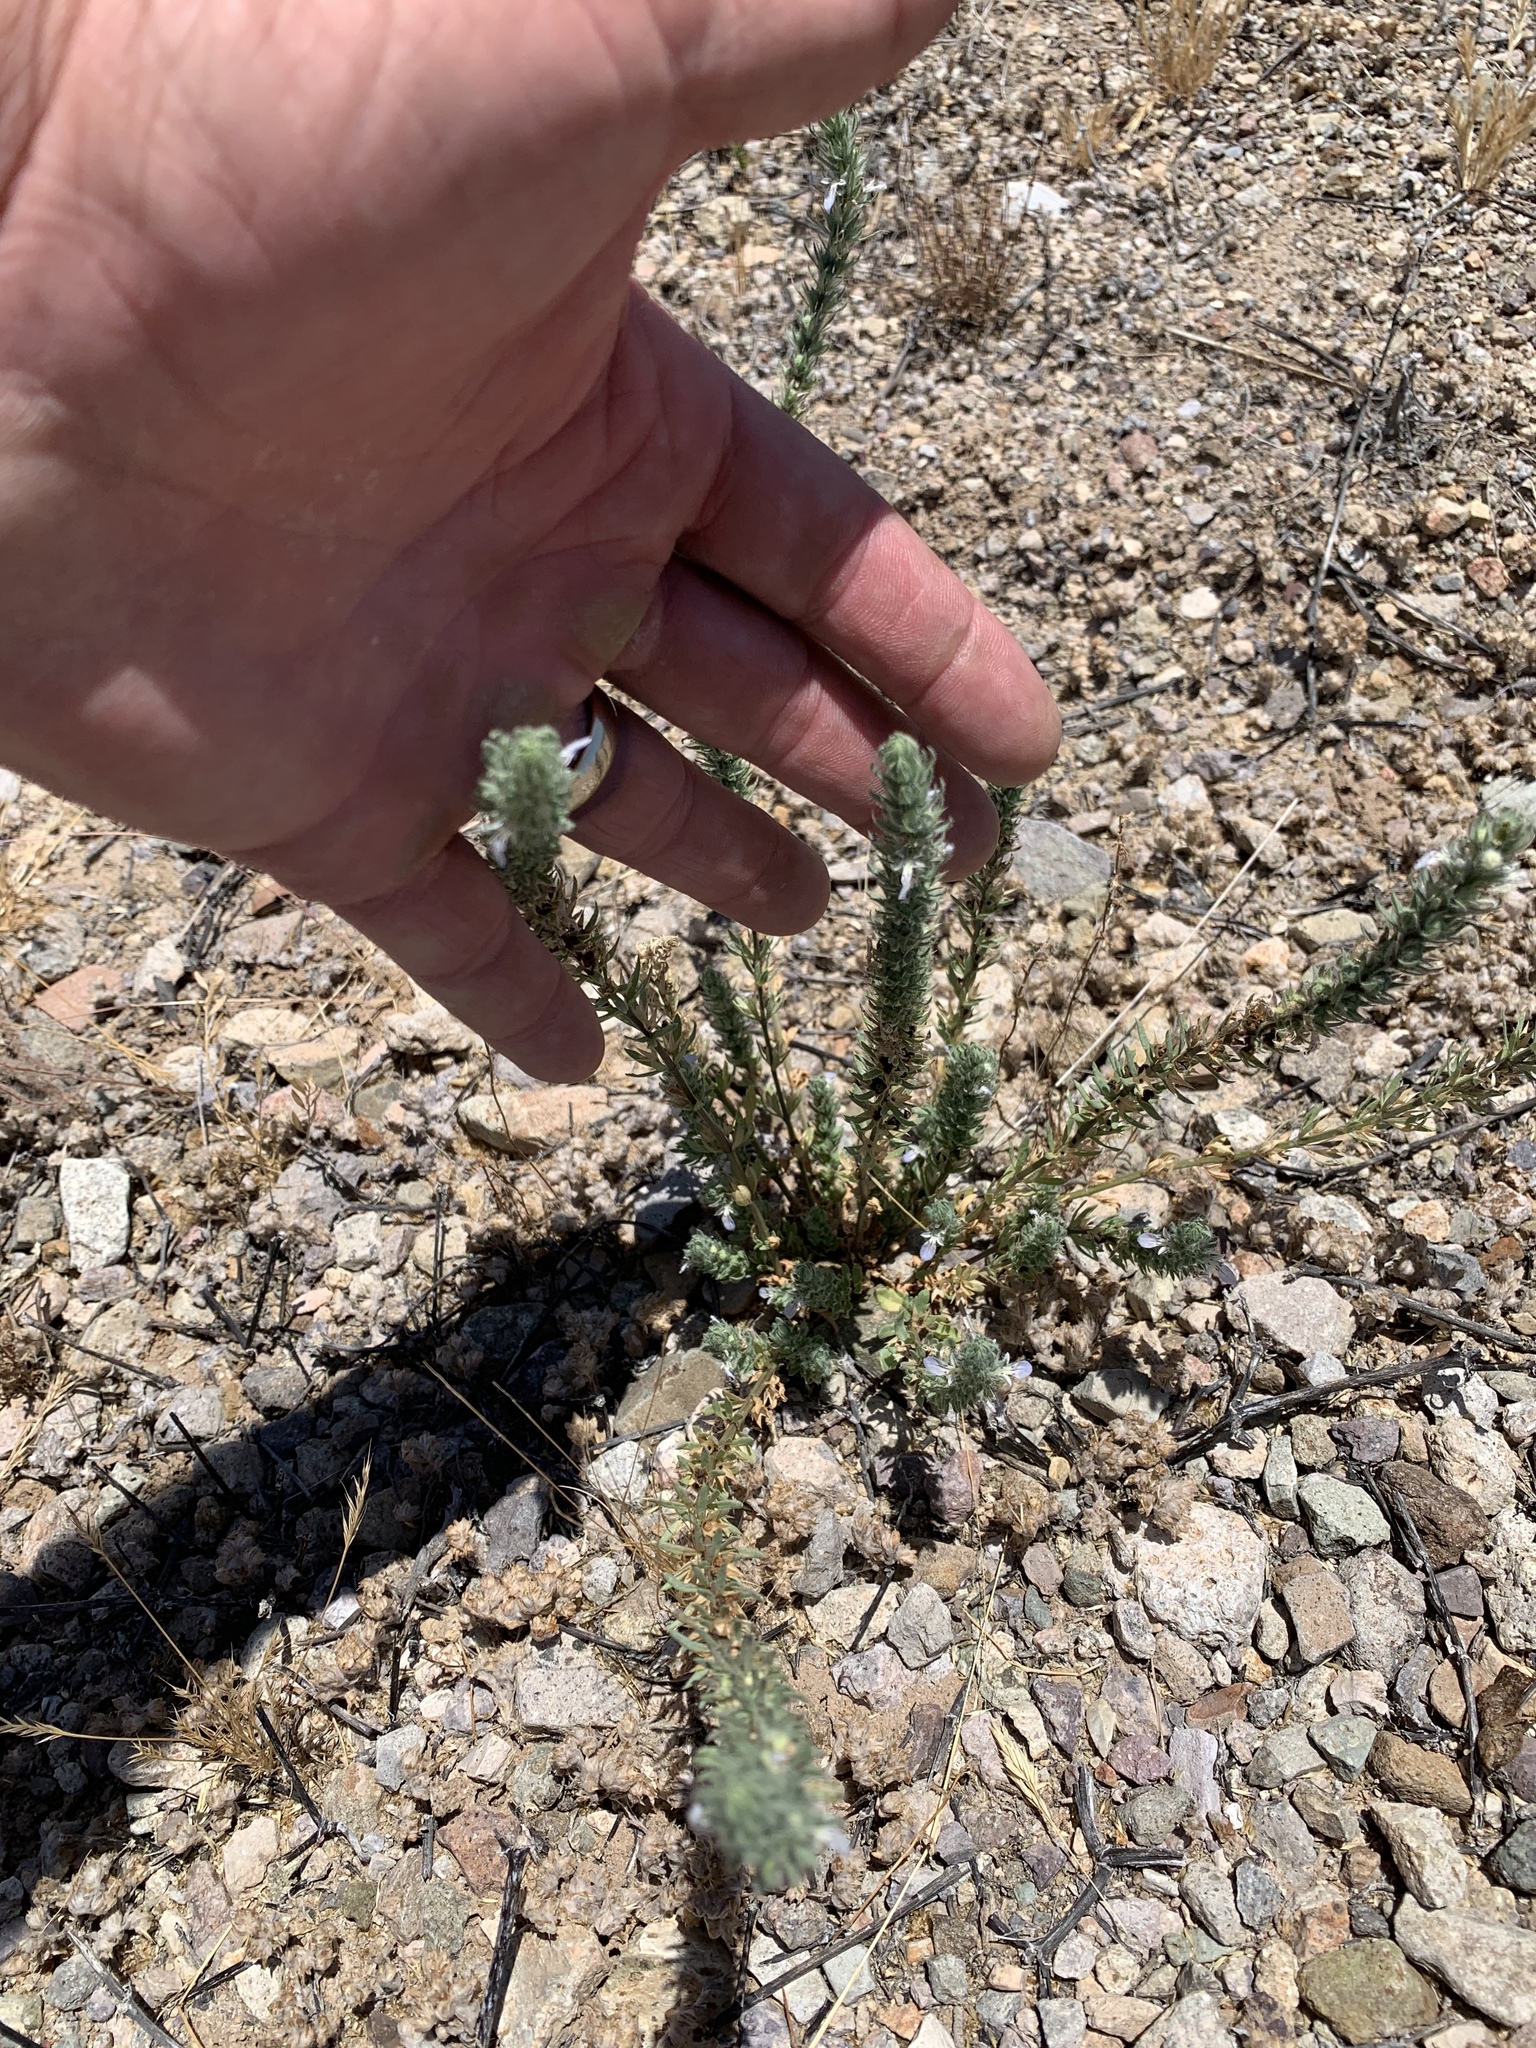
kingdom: Plantae
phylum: Tracheophyta
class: Magnoliopsida
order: Lamiales
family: Lamiaceae
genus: Teucrium
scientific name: Teucrium cubense
